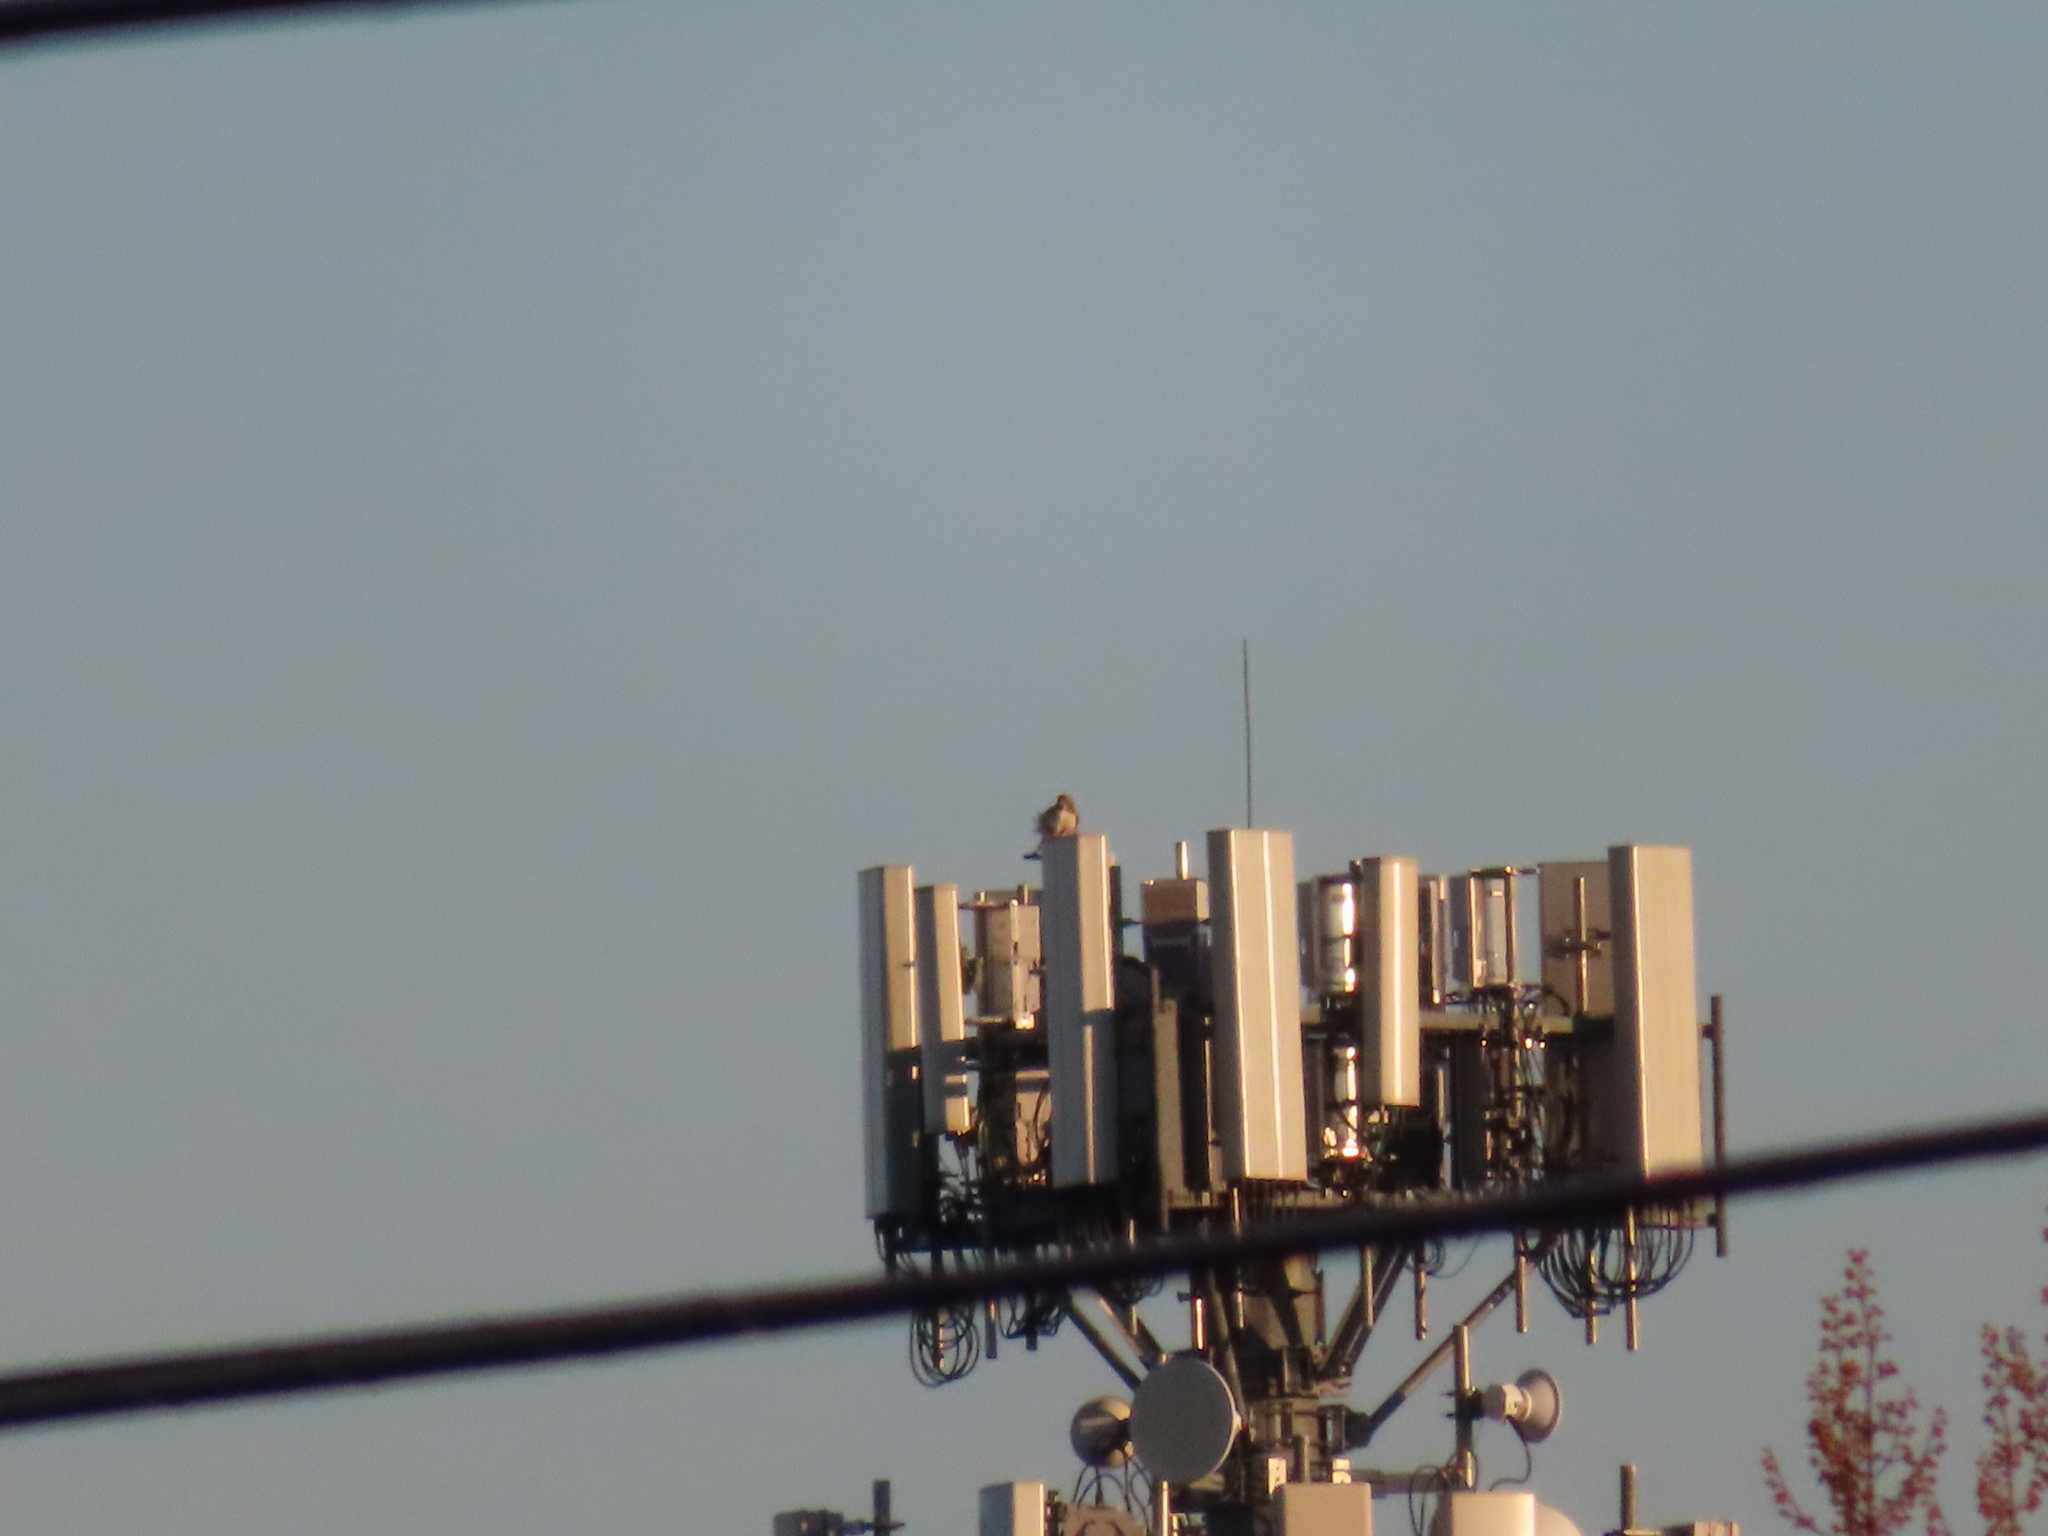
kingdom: Animalia
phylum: Chordata
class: Aves
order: Accipitriformes
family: Accipitridae
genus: Buteo
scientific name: Buteo jamaicensis
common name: Red-tailed hawk
